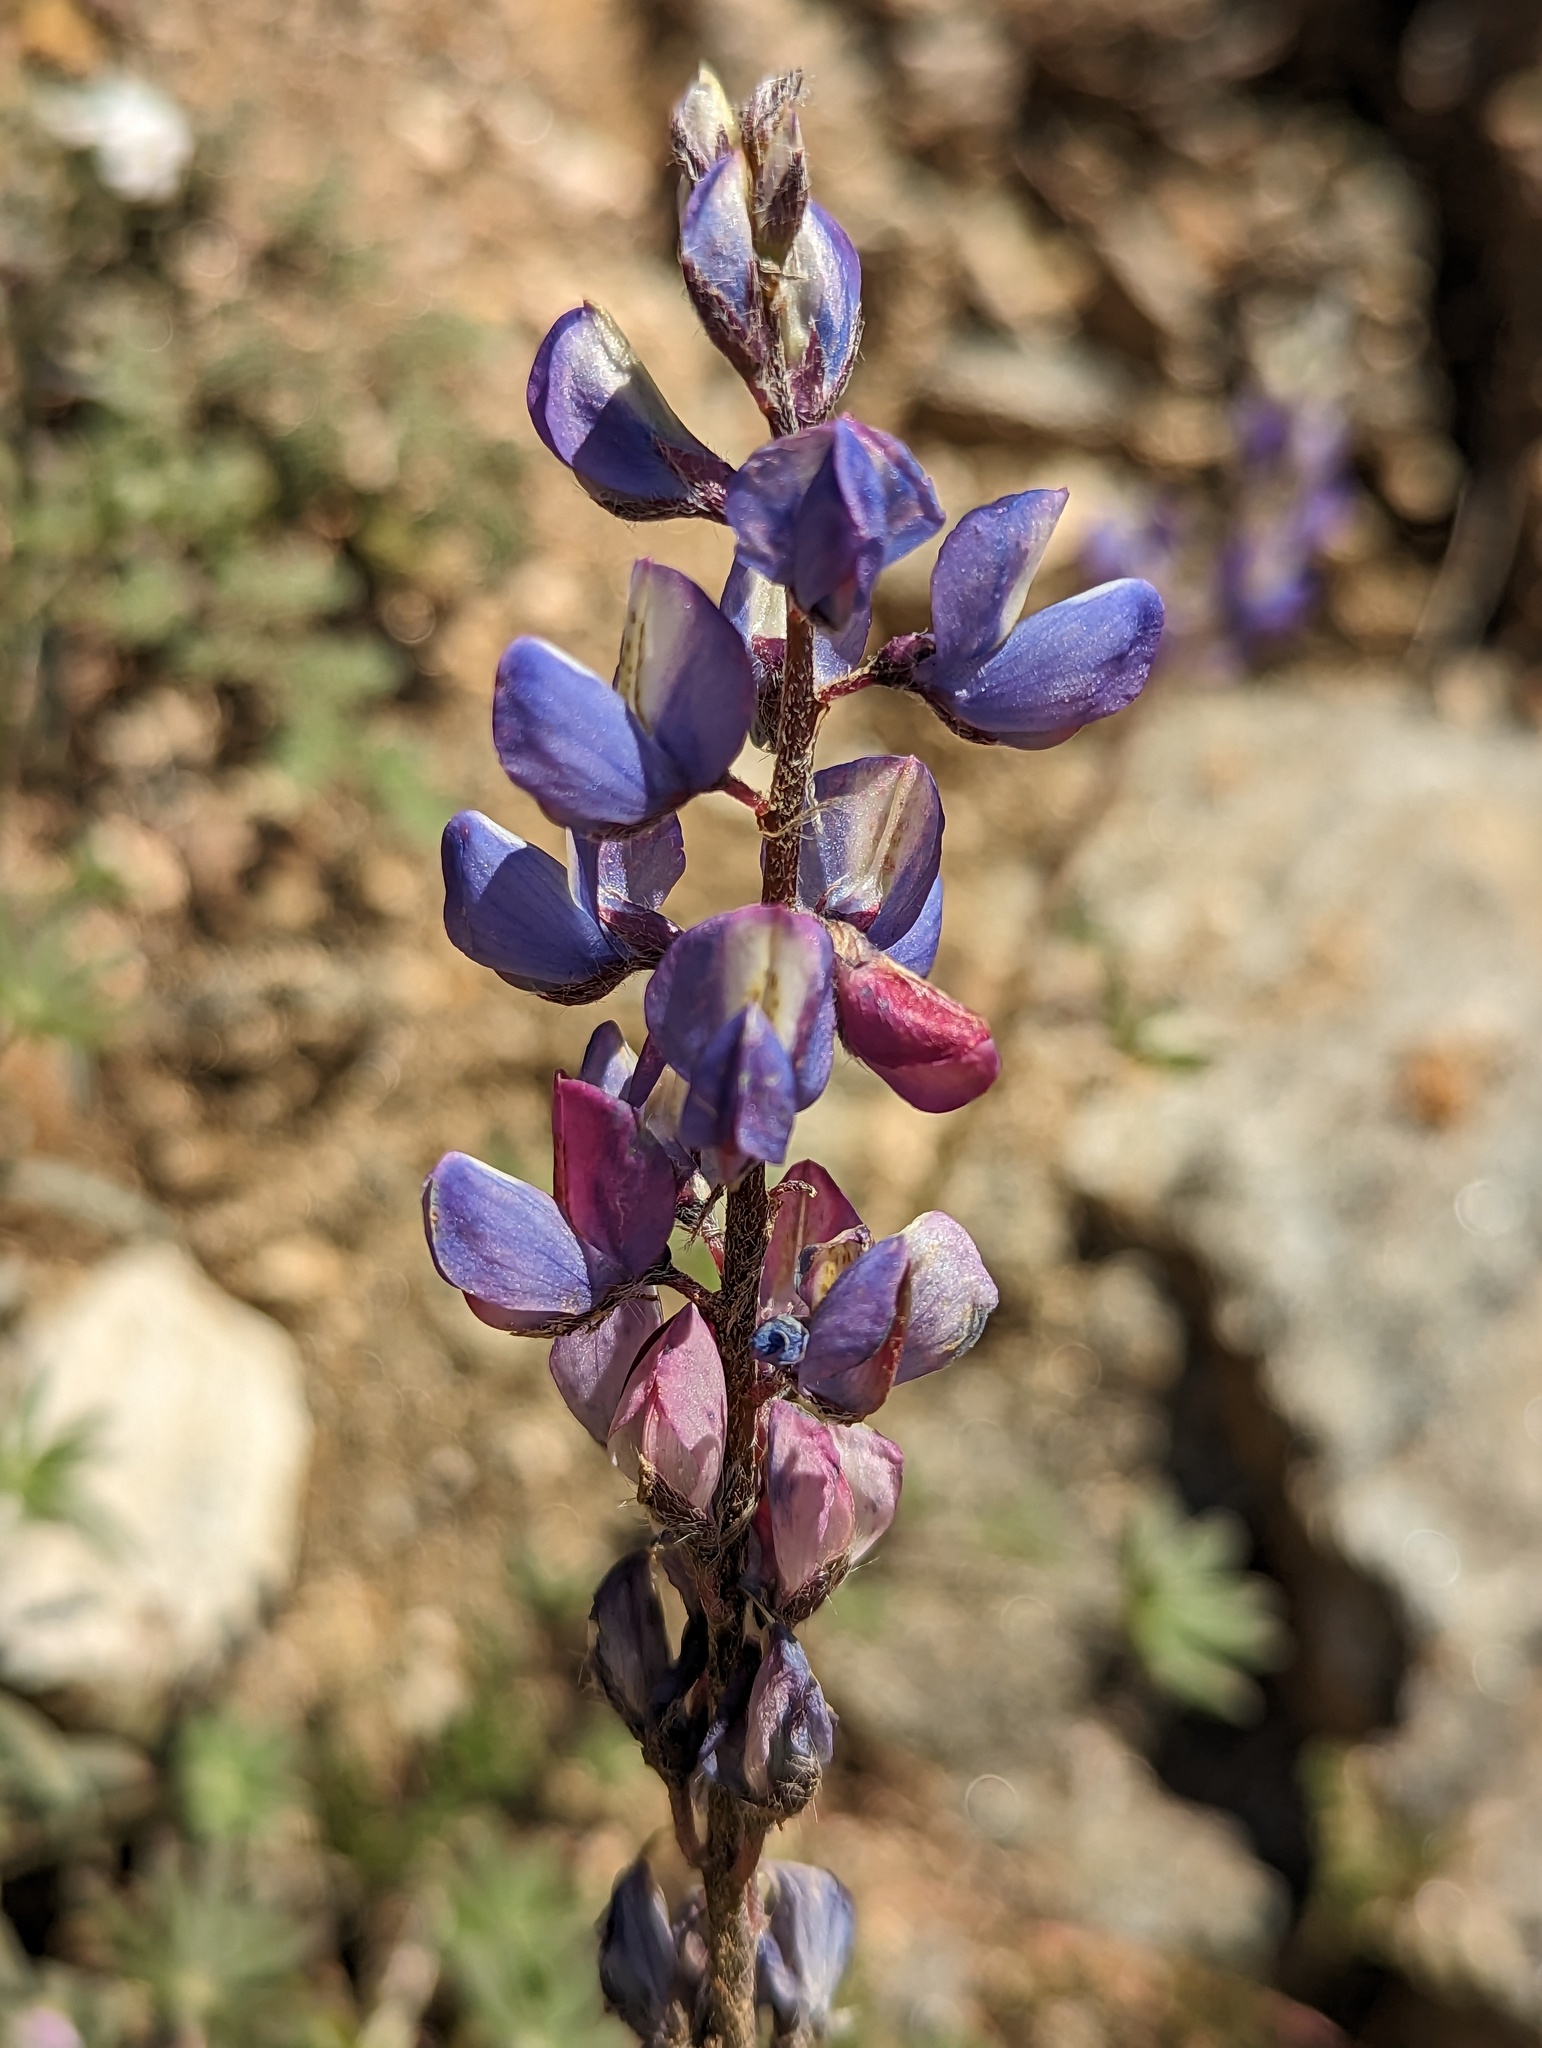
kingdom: Plantae
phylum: Tracheophyta
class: Magnoliopsida
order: Fabales
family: Fabaceae
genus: Lupinus
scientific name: Lupinus sparsiflorus
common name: Coulter's lupine
